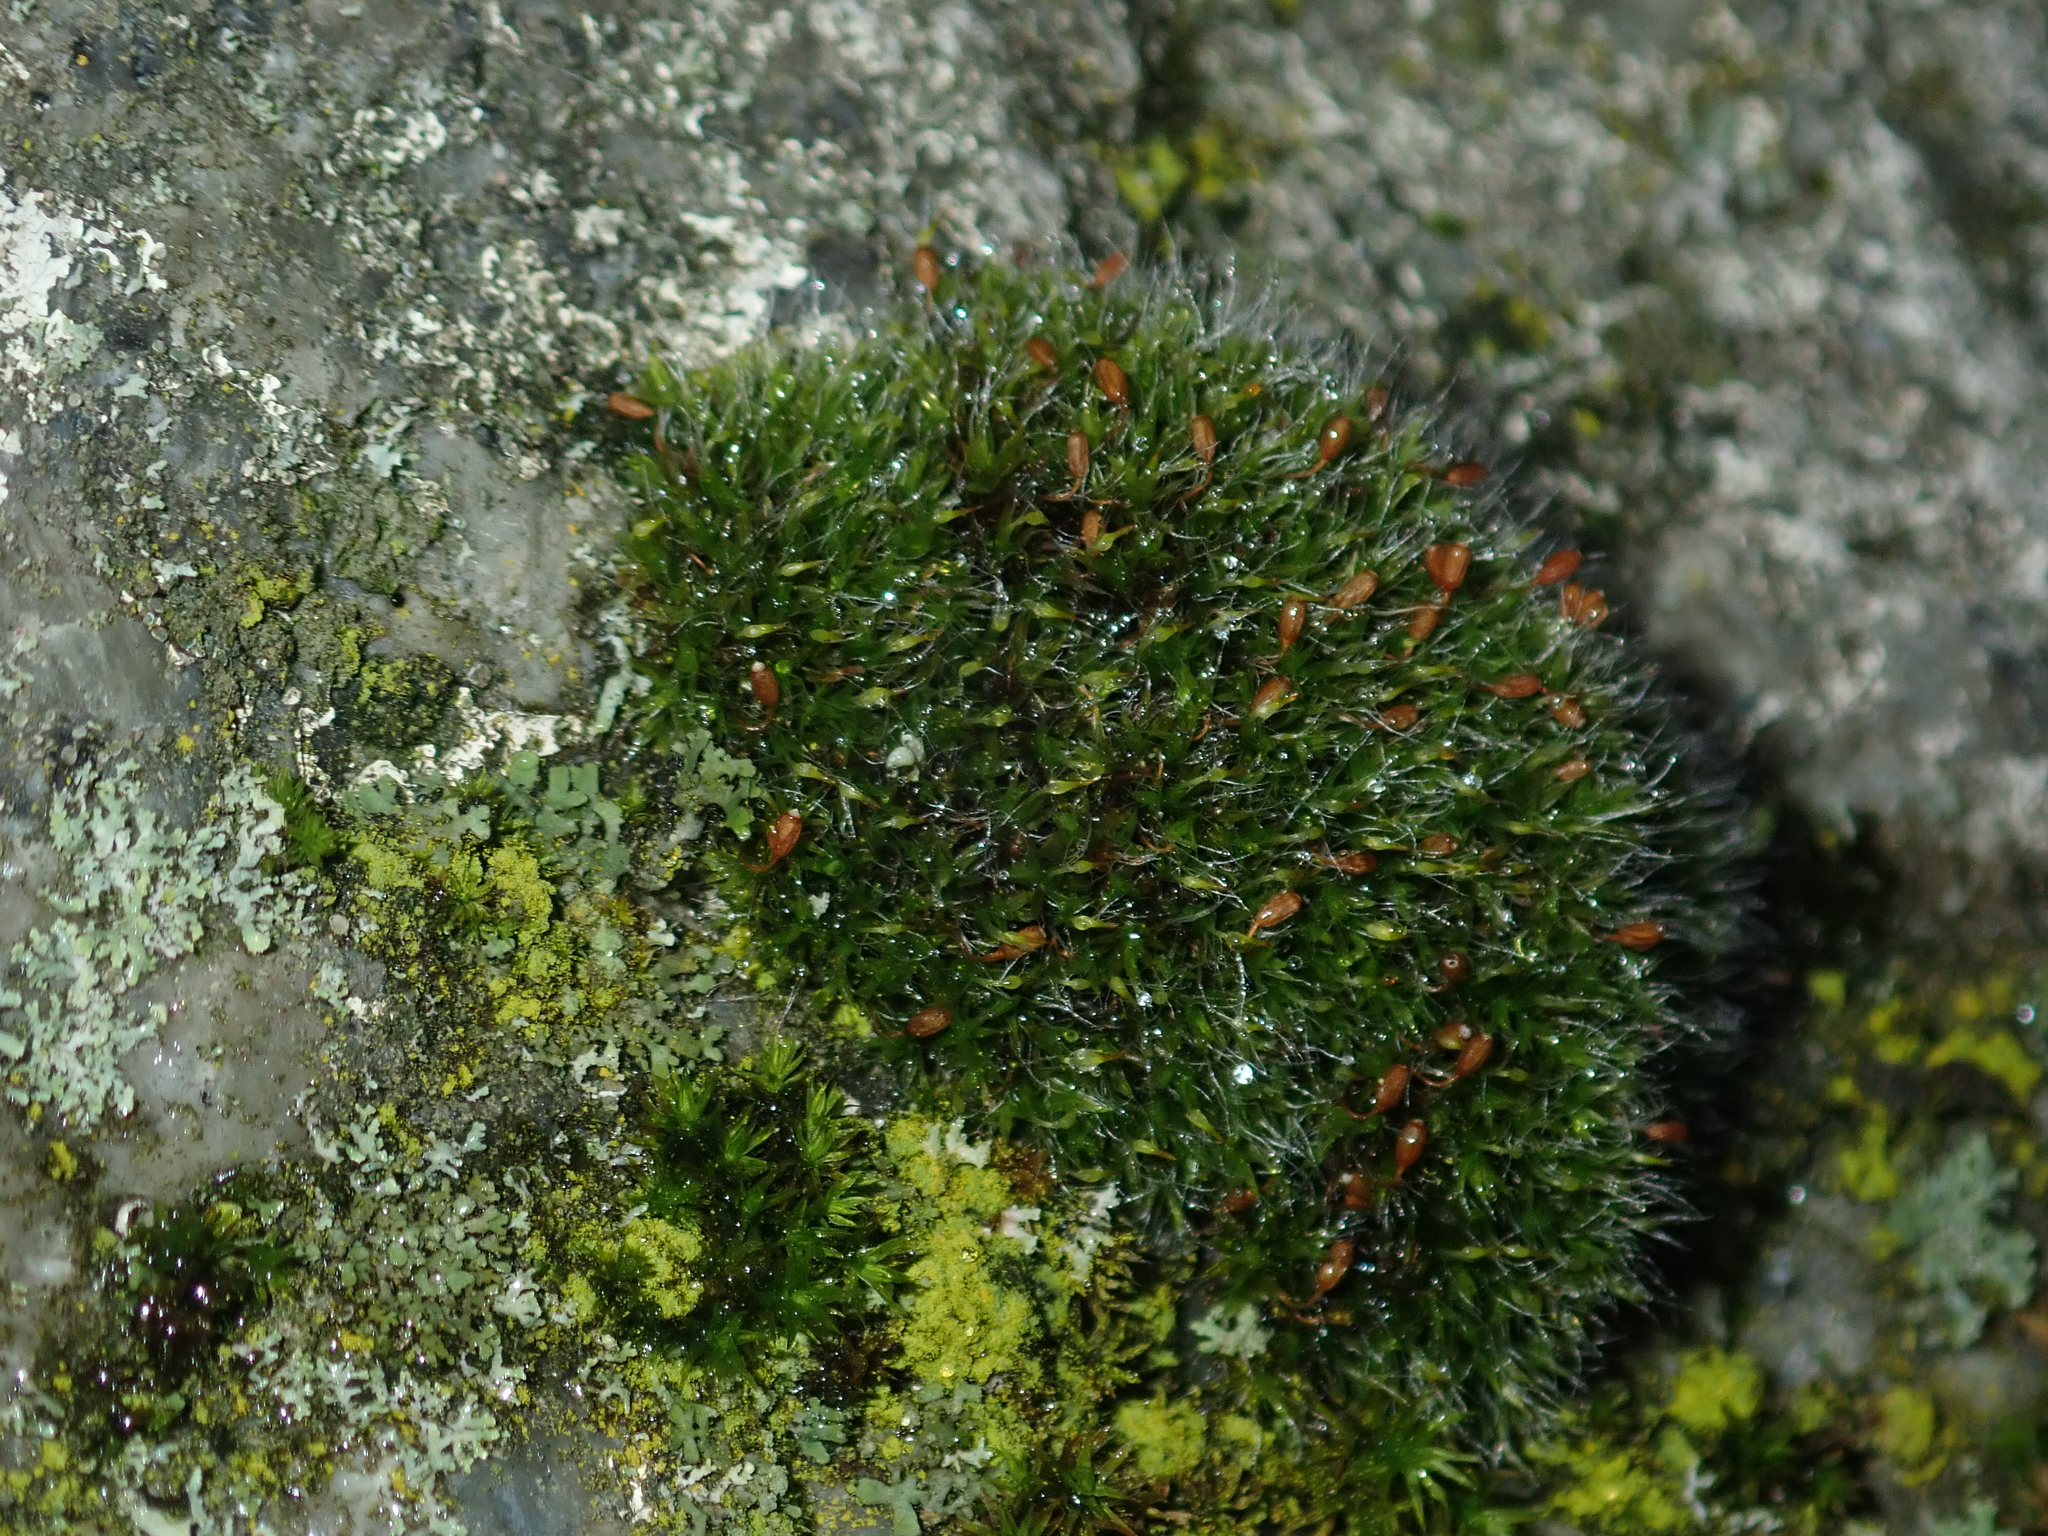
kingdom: Plantae
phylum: Bryophyta
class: Bryopsida
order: Grimmiales
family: Grimmiaceae
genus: Grimmia
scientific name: Grimmia pulvinata
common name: Grey-cushioned grimmia
